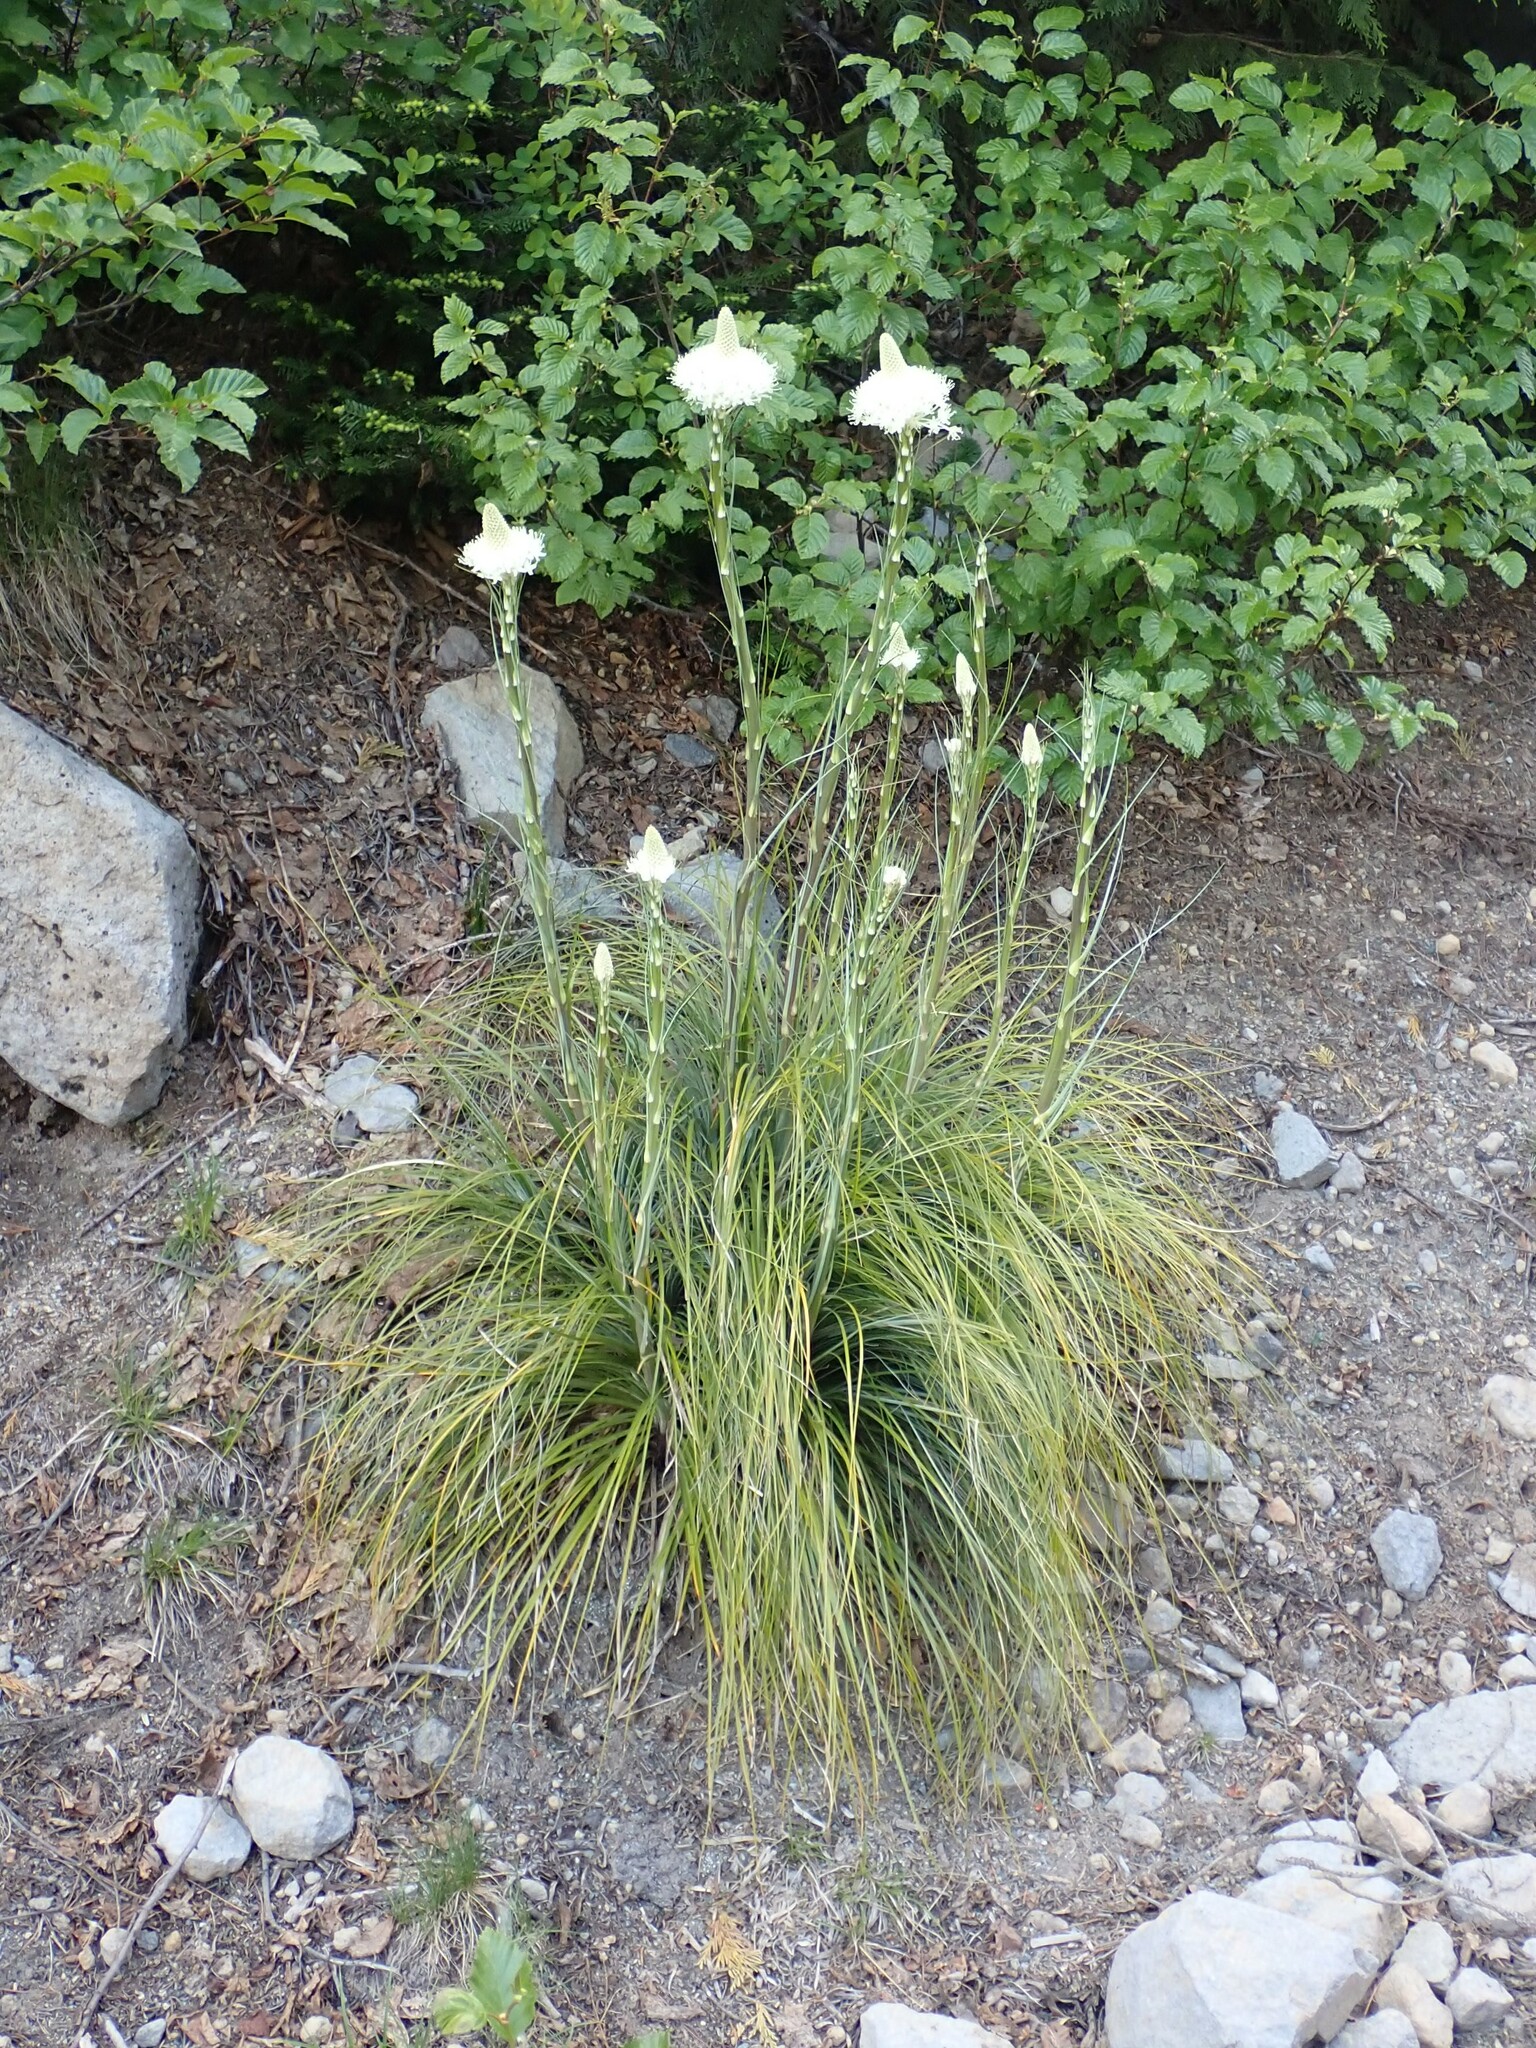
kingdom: Plantae
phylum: Tracheophyta
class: Liliopsida
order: Liliales
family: Melanthiaceae
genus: Xerophyllum
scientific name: Xerophyllum tenax
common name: Bear-grass
